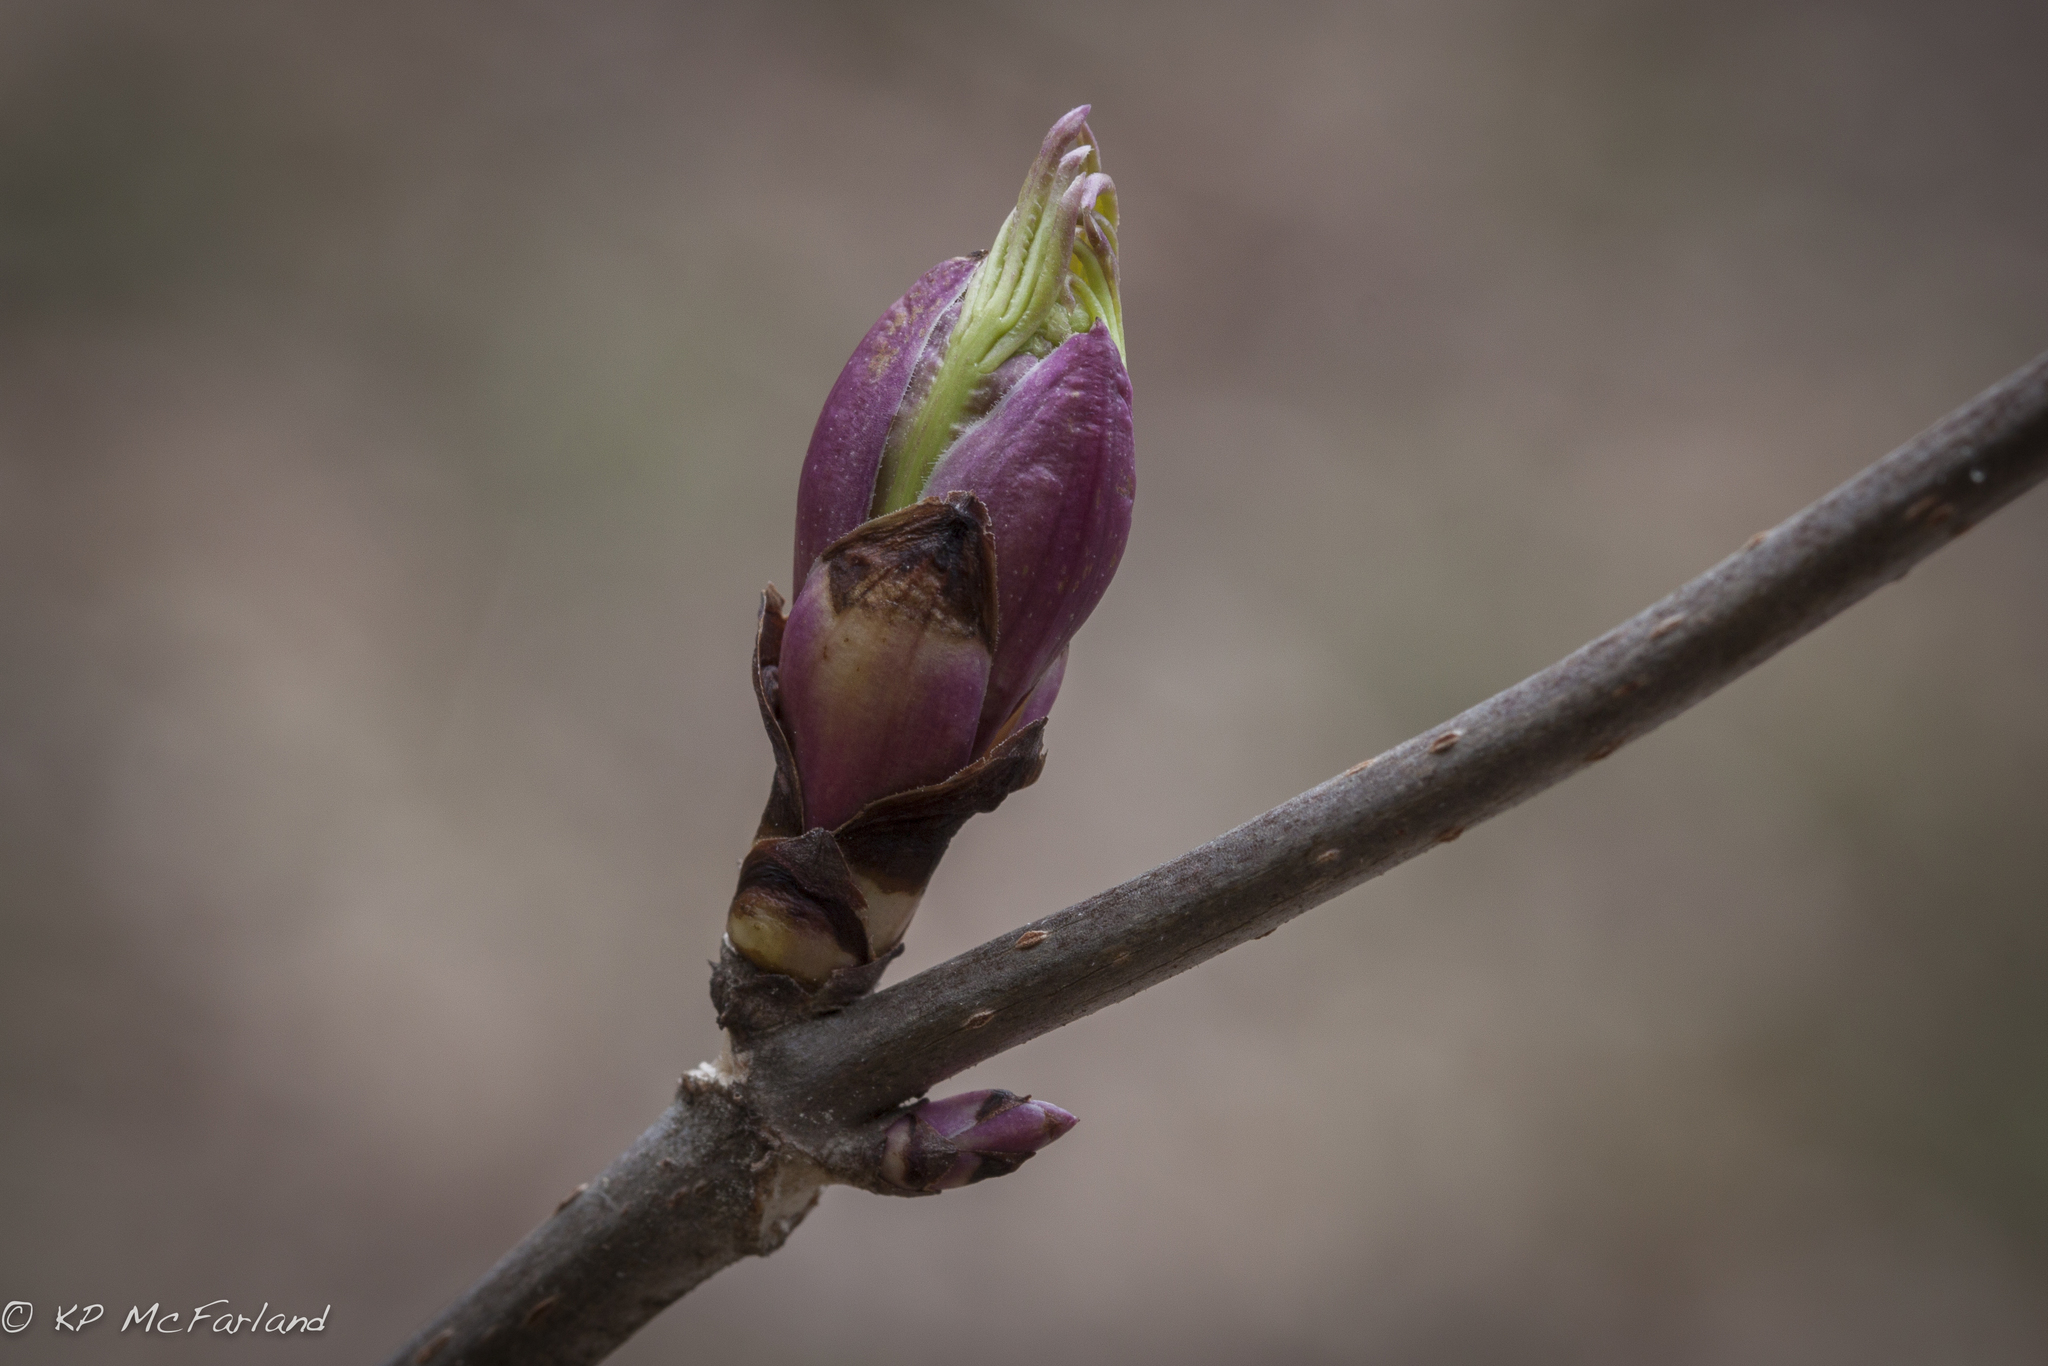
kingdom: Plantae
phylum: Tracheophyta
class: Magnoliopsida
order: Dipsacales
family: Viburnaceae
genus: Sambucus
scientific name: Sambucus racemosa
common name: Red-berried elder
